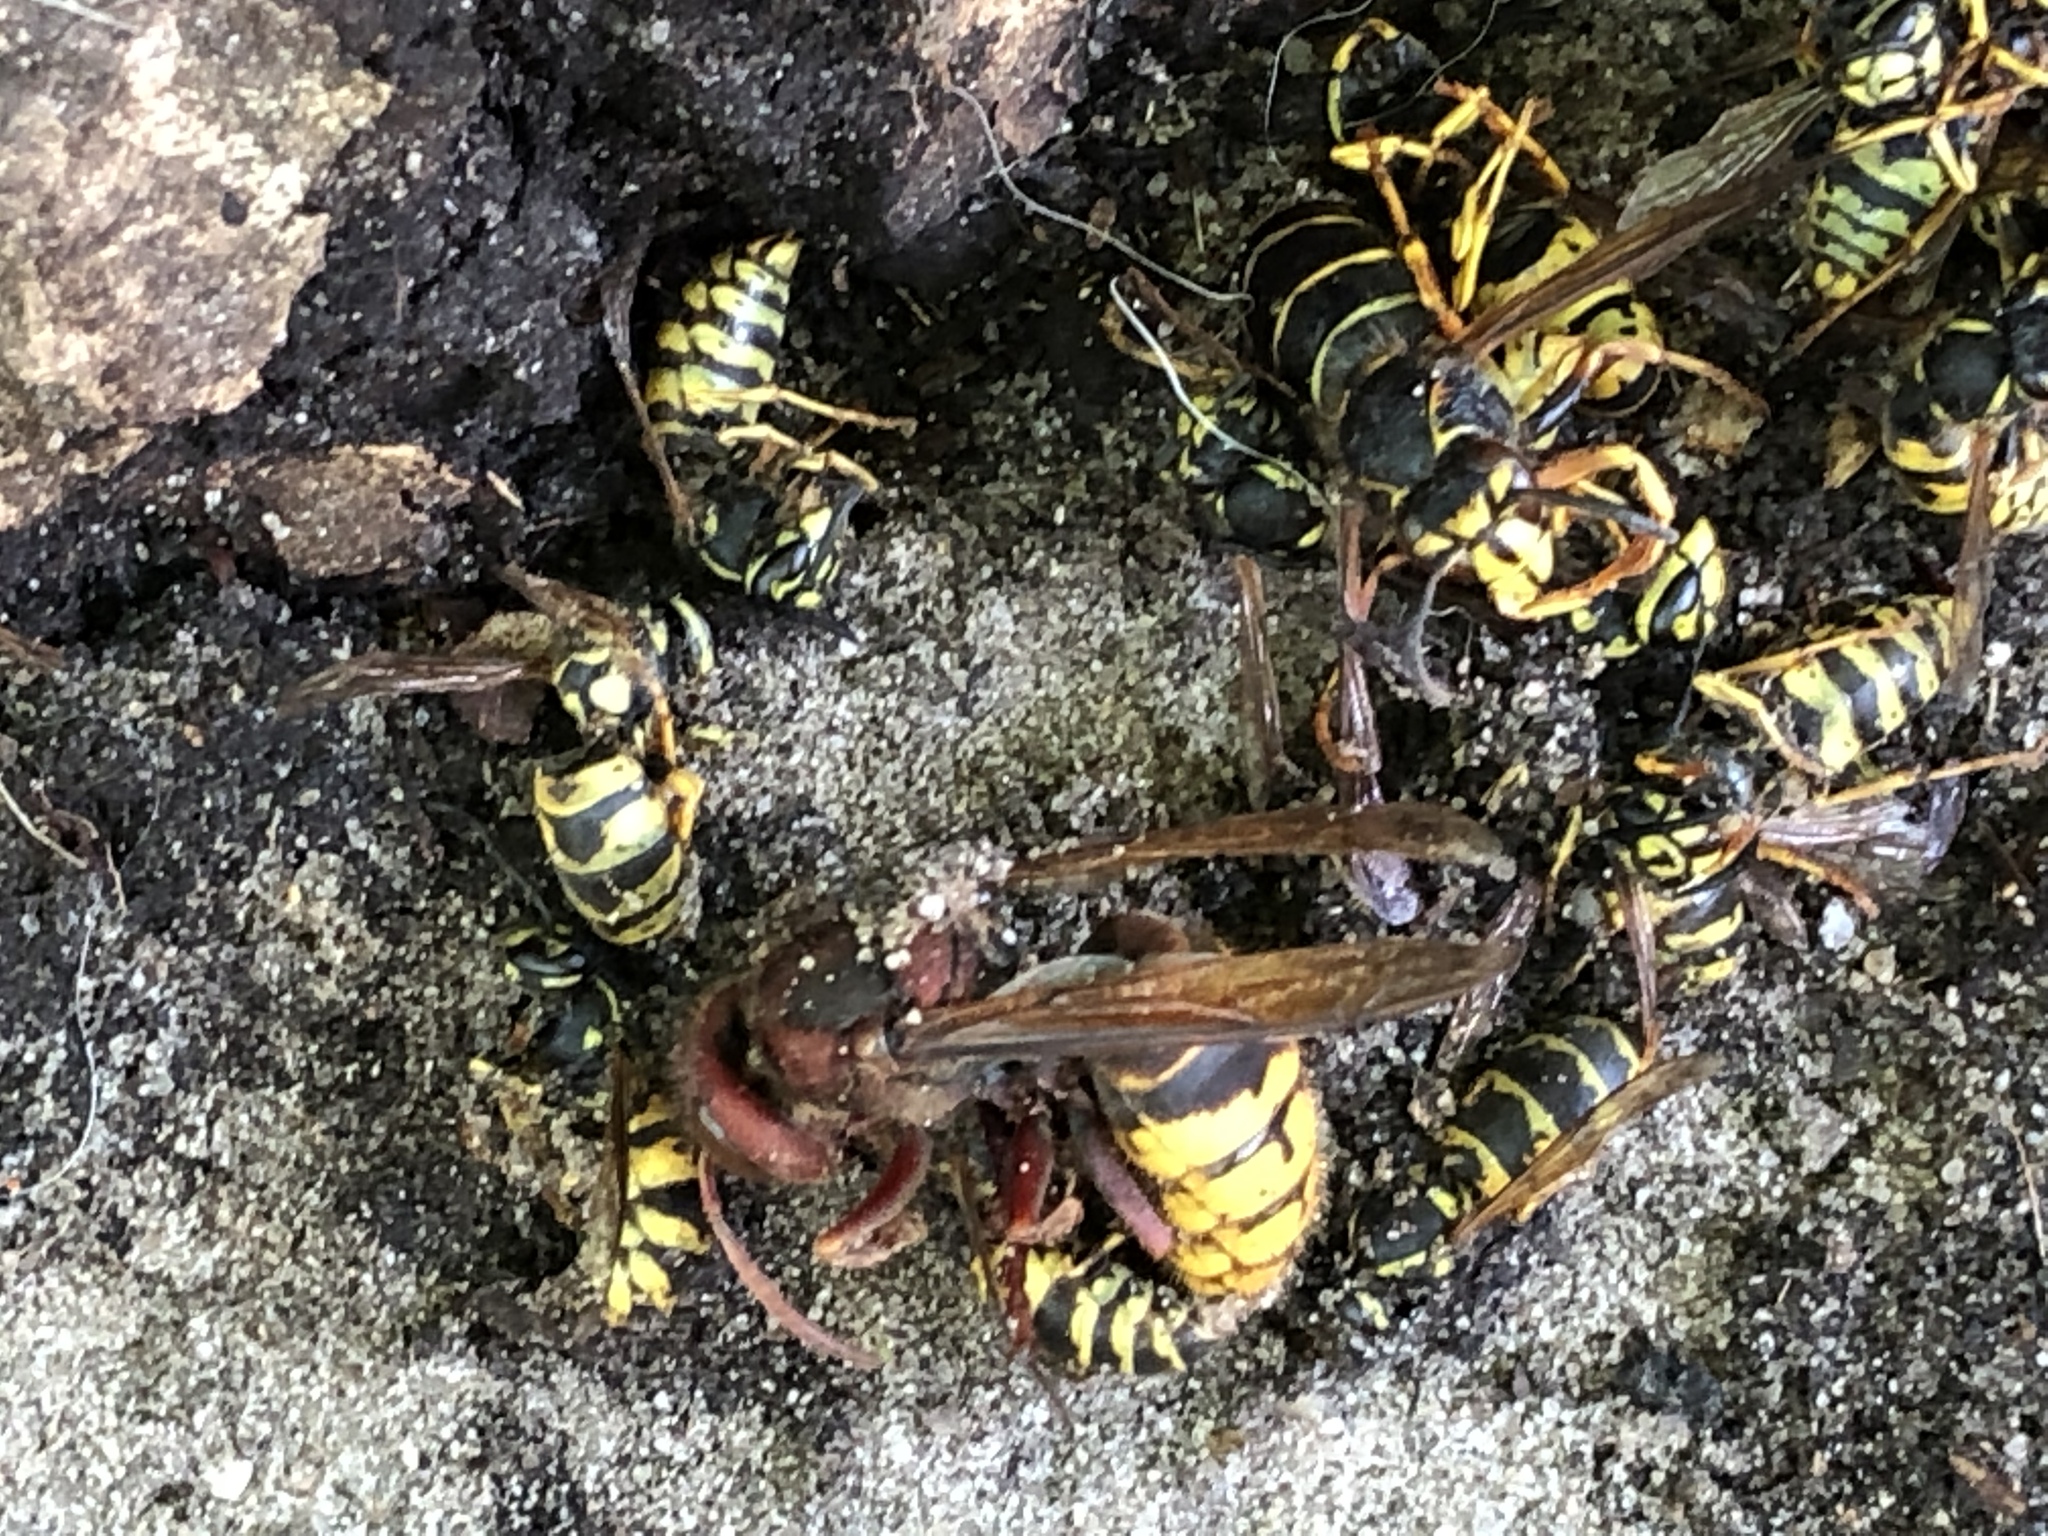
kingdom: Animalia
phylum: Arthropoda
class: Insecta
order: Hymenoptera
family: Vespidae
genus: Vespa
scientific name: Vespa crabro
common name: Hornet
